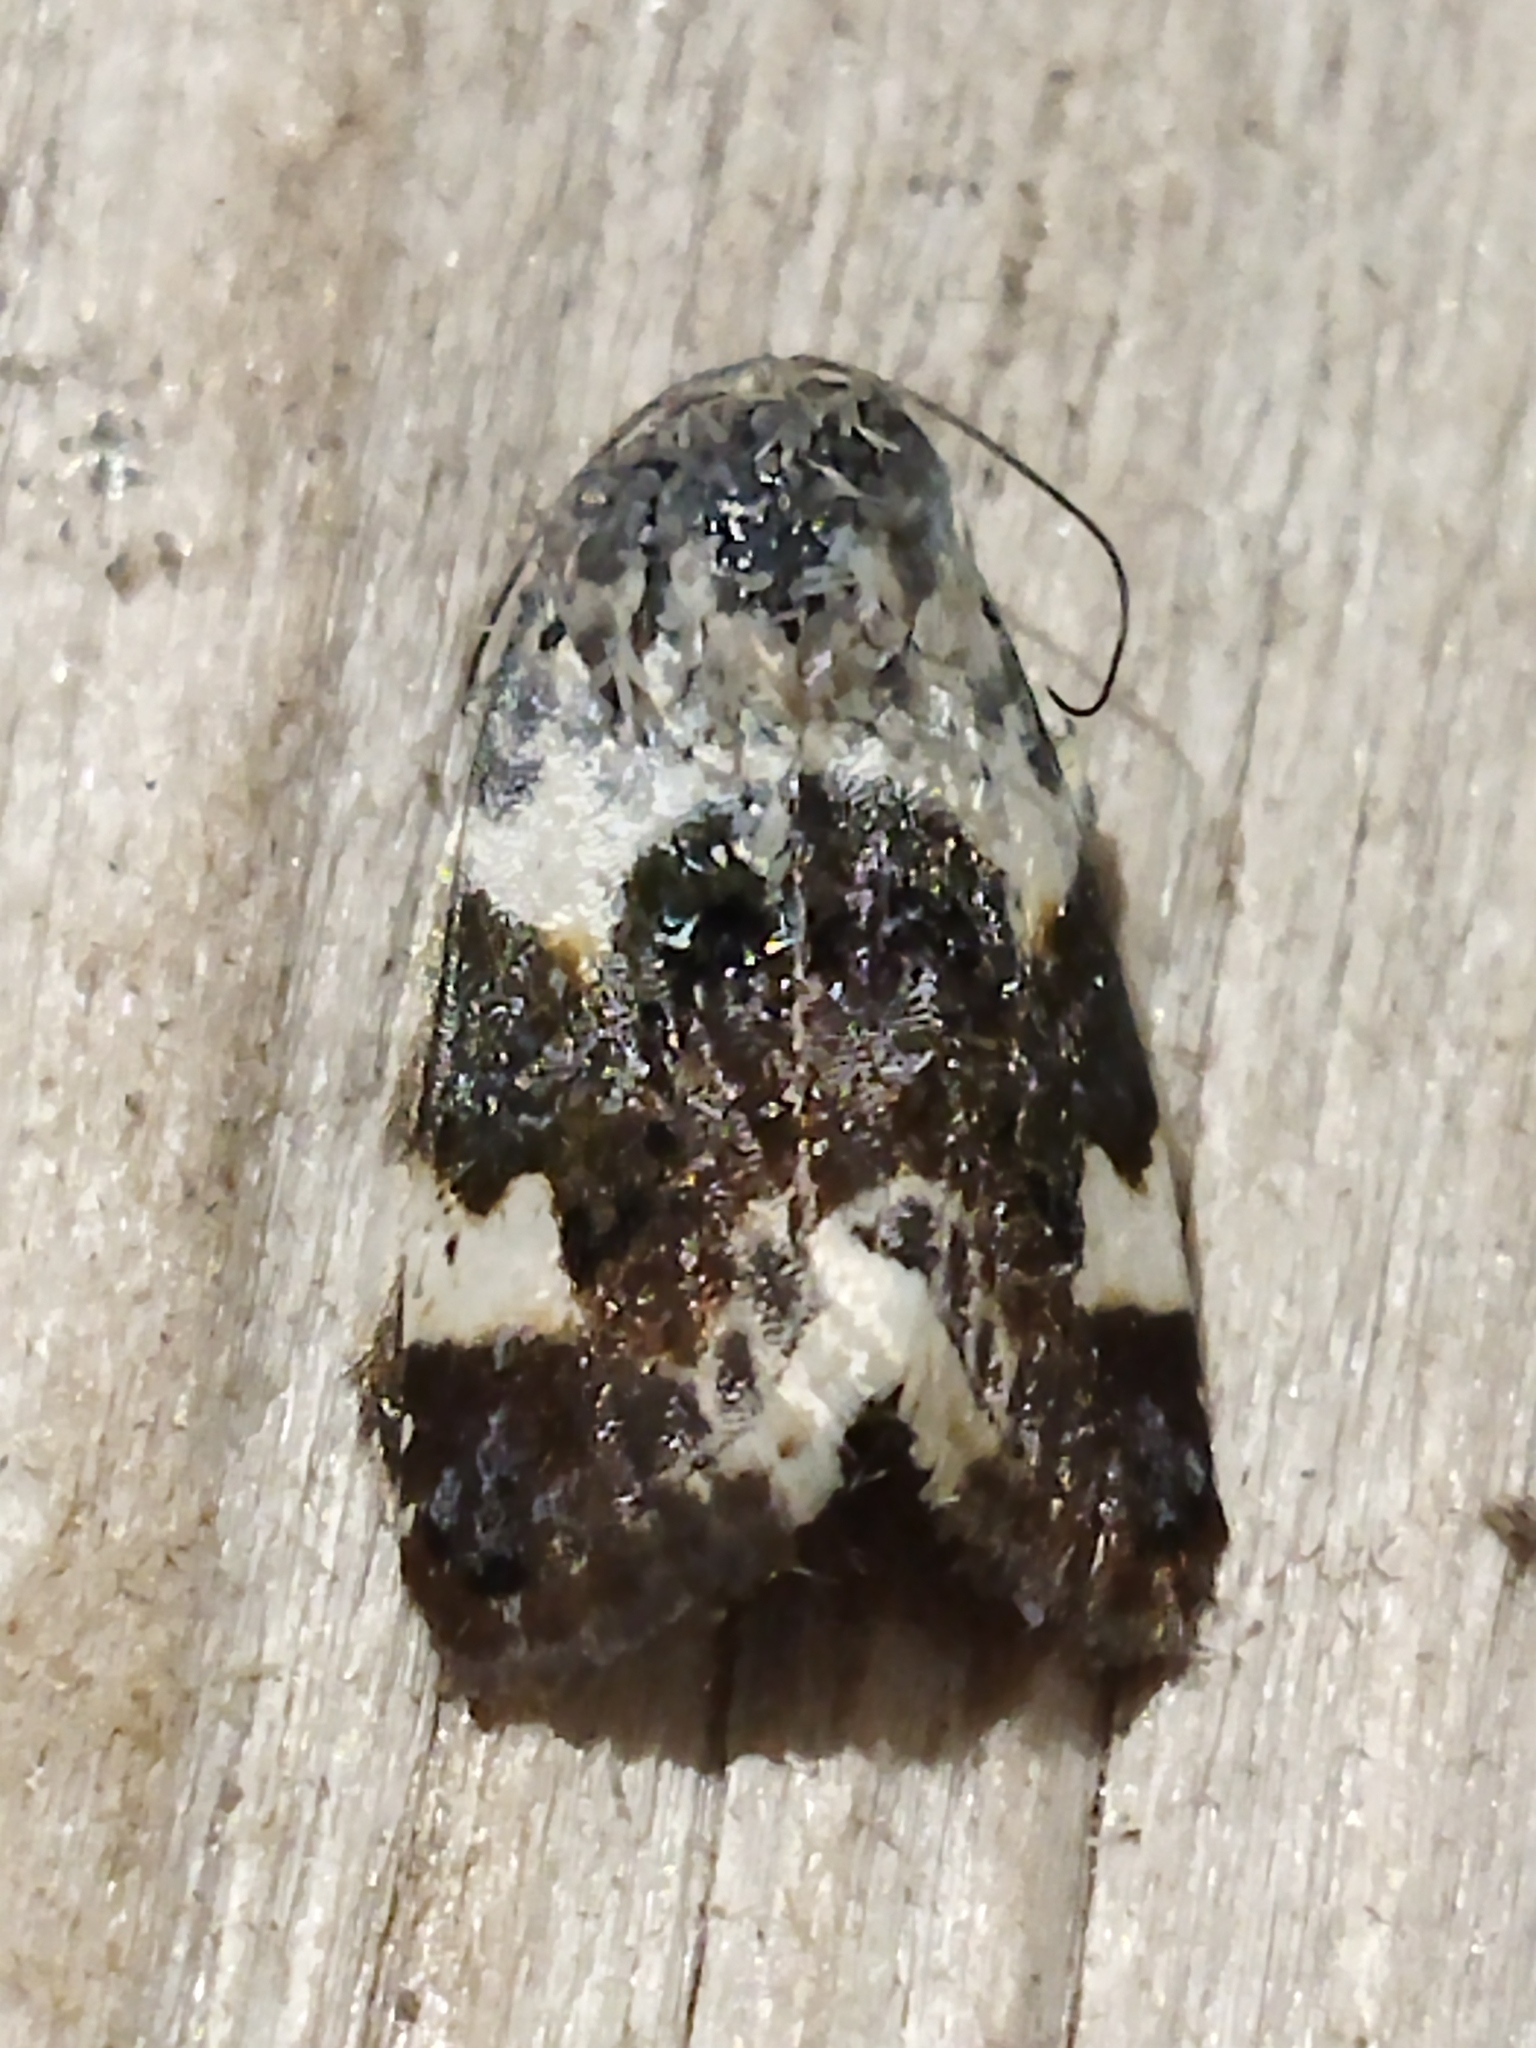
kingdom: Animalia
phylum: Arthropoda
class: Insecta
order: Lepidoptera
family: Noctuidae
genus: Acontia
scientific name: Acontia lucida
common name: Pale shoulder
